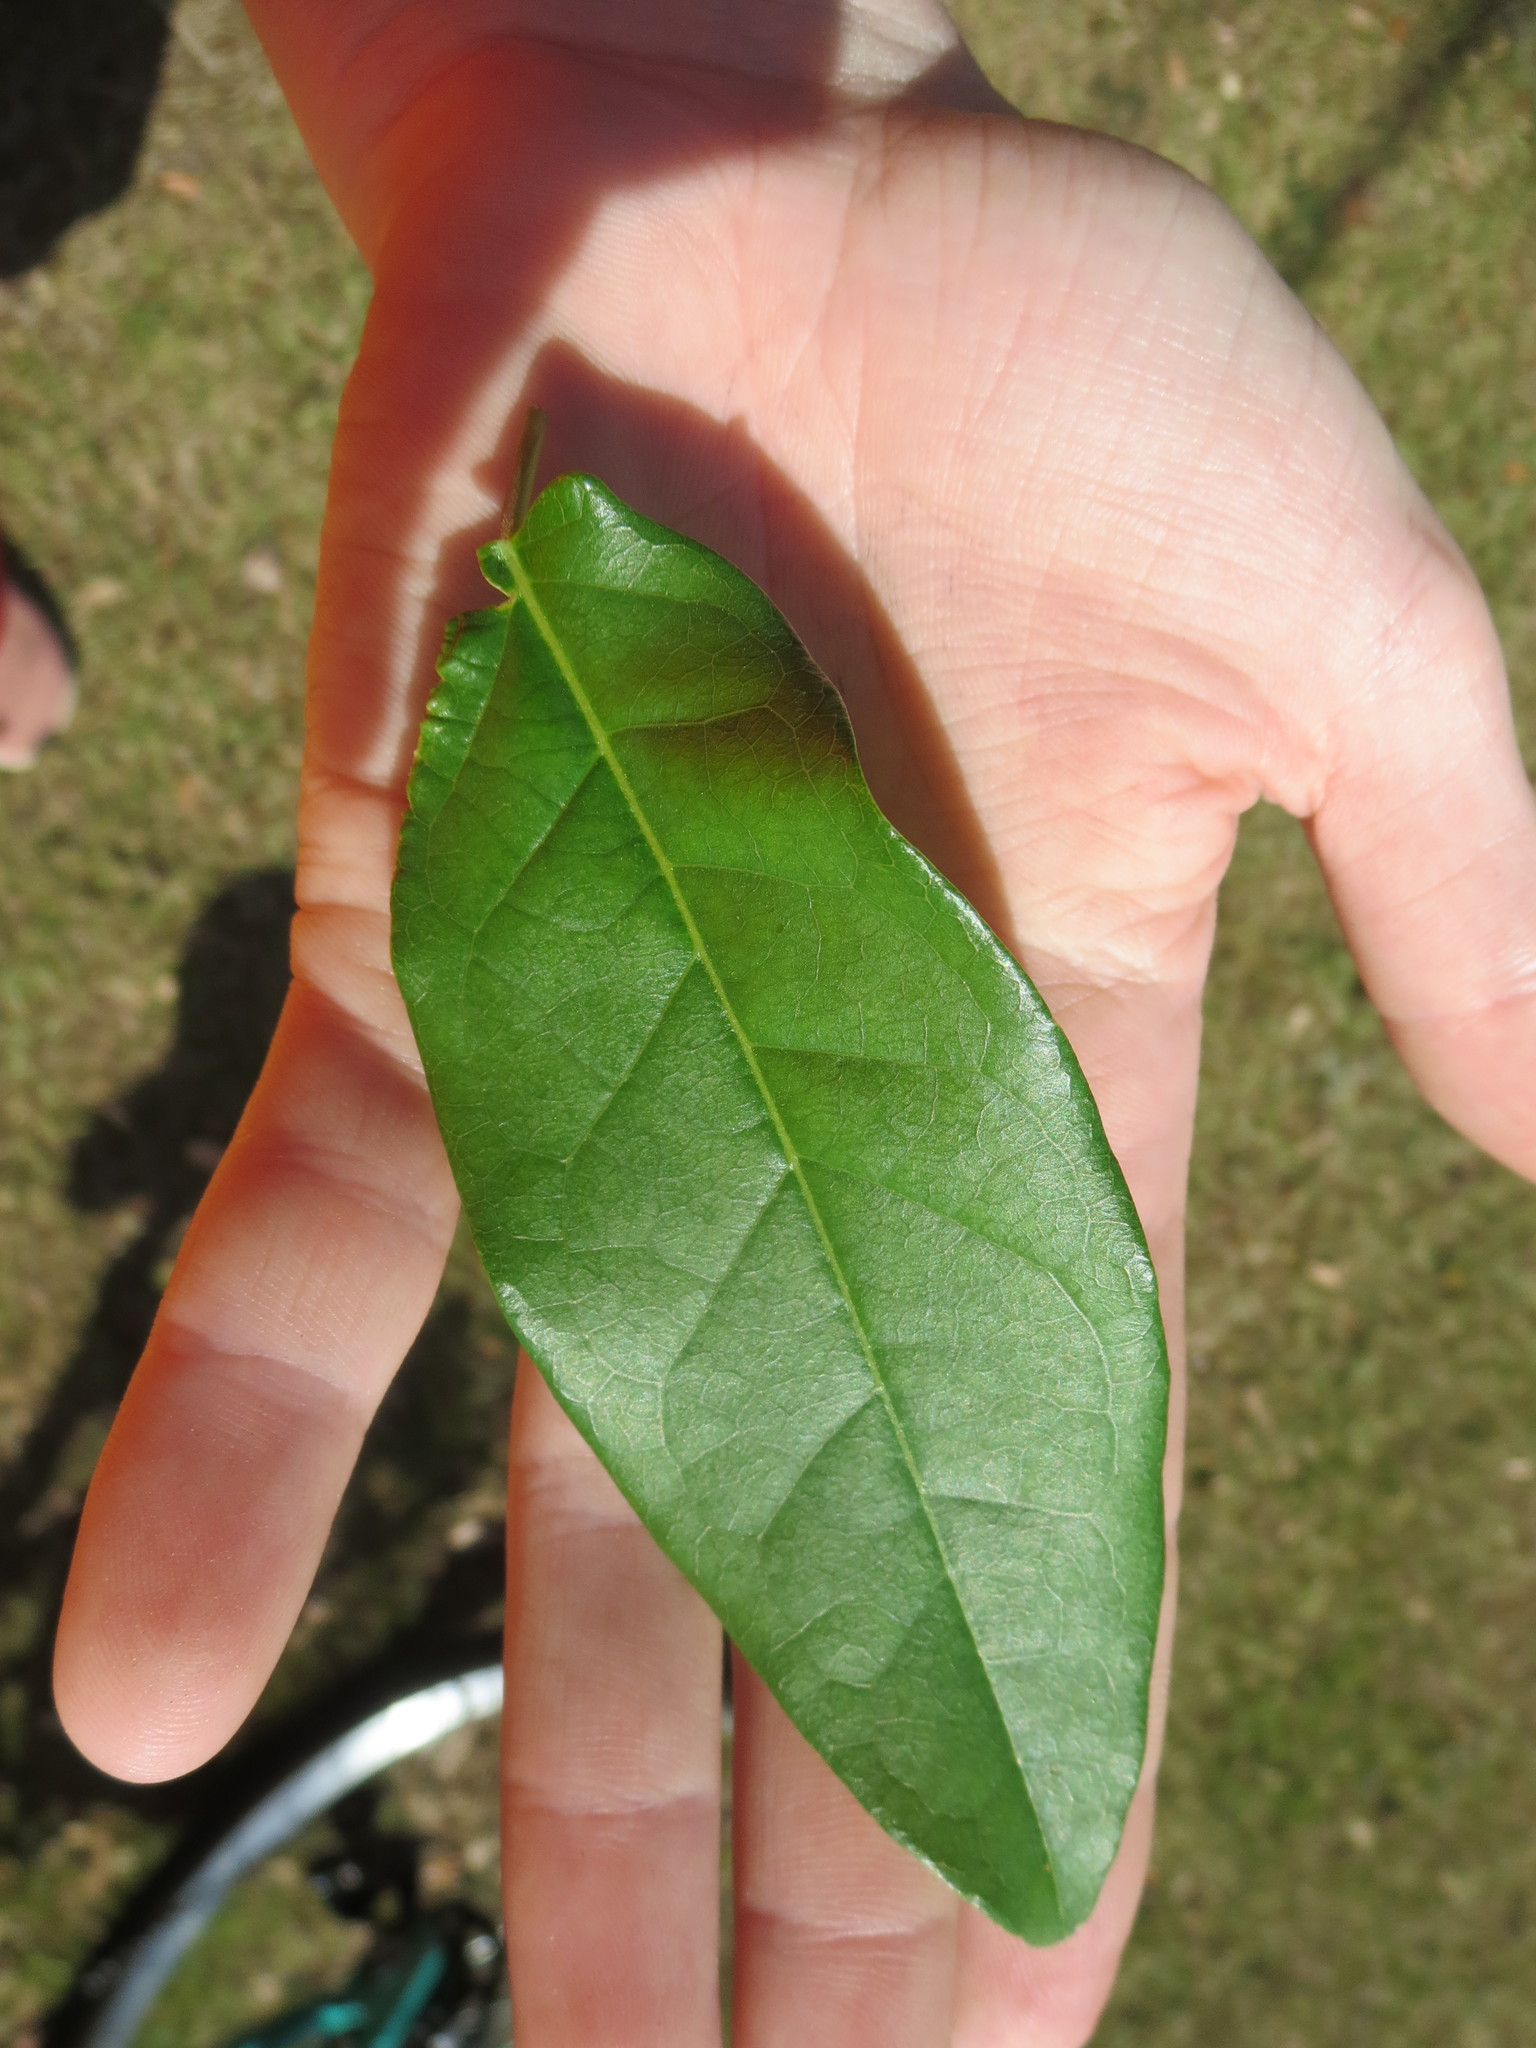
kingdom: Plantae
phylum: Tracheophyta
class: Magnoliopsida
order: Lamiales
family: Bignoniaceae
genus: Bignonia
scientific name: Bignonia capreolata
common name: Crossvine
